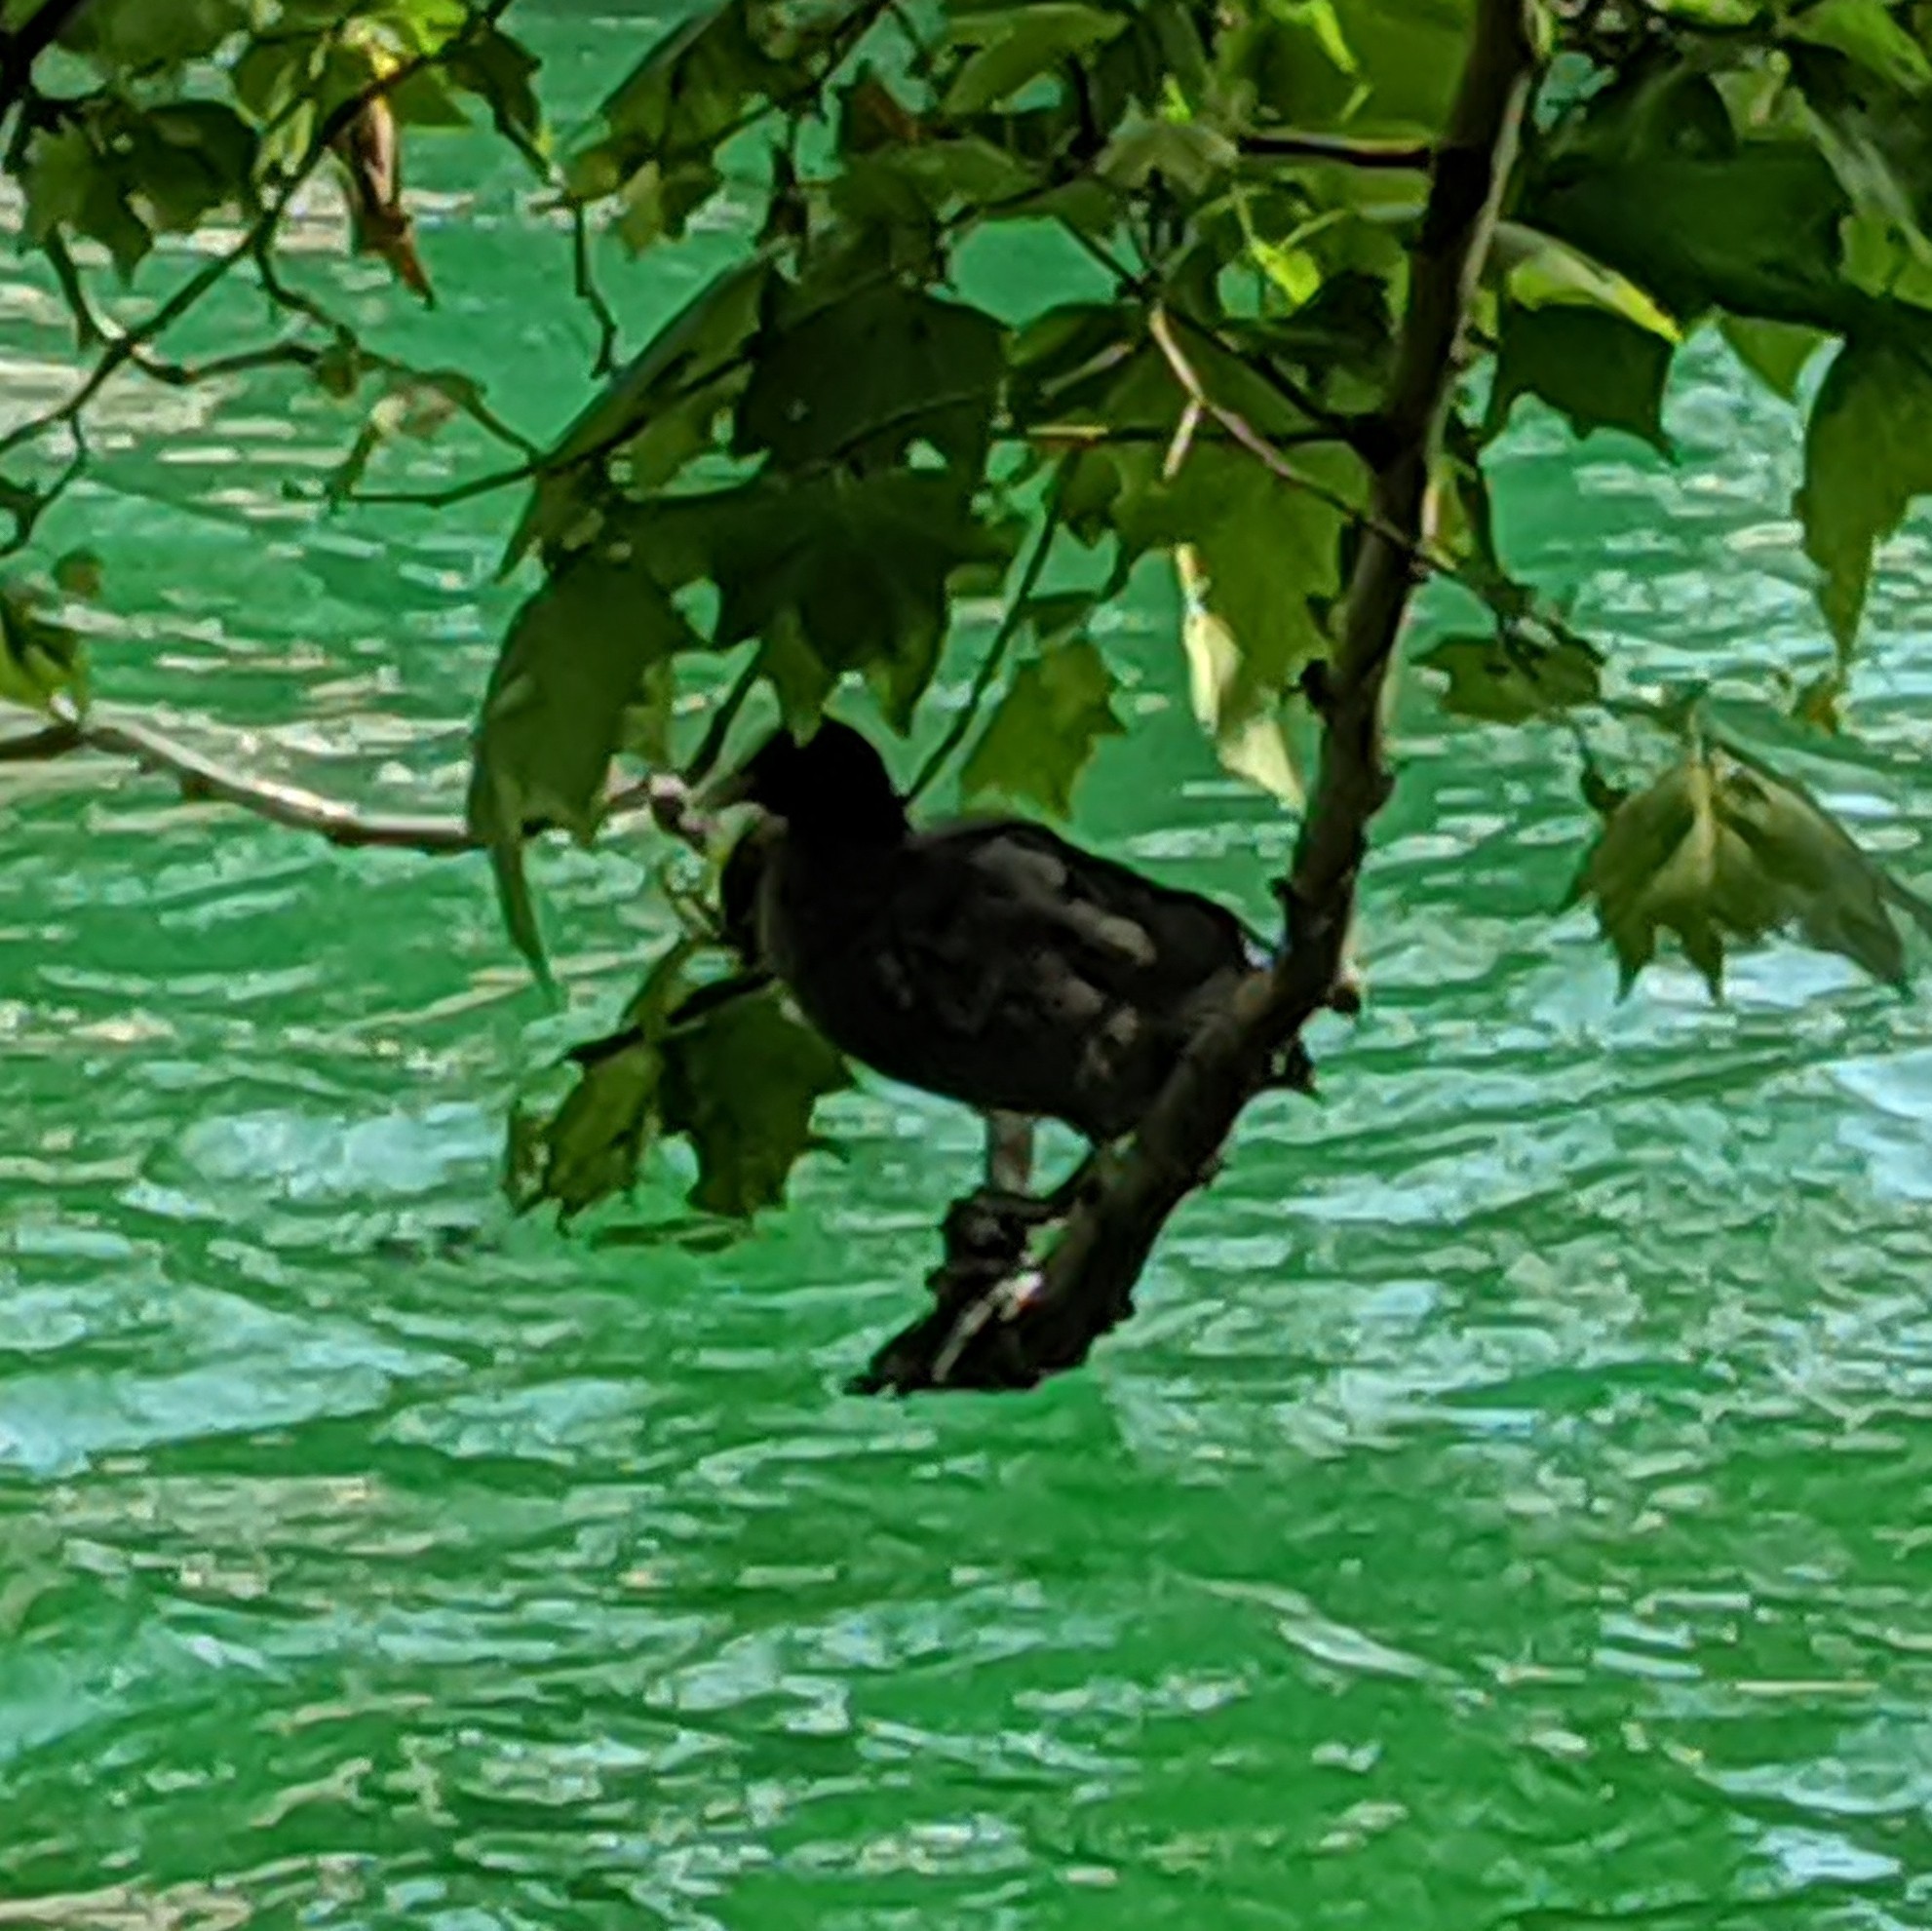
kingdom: Animalia
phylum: Chordata
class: Aves
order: Gruiformes
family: Rallidae
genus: Fulica
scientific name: Fulica atra
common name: Eurasian coot
